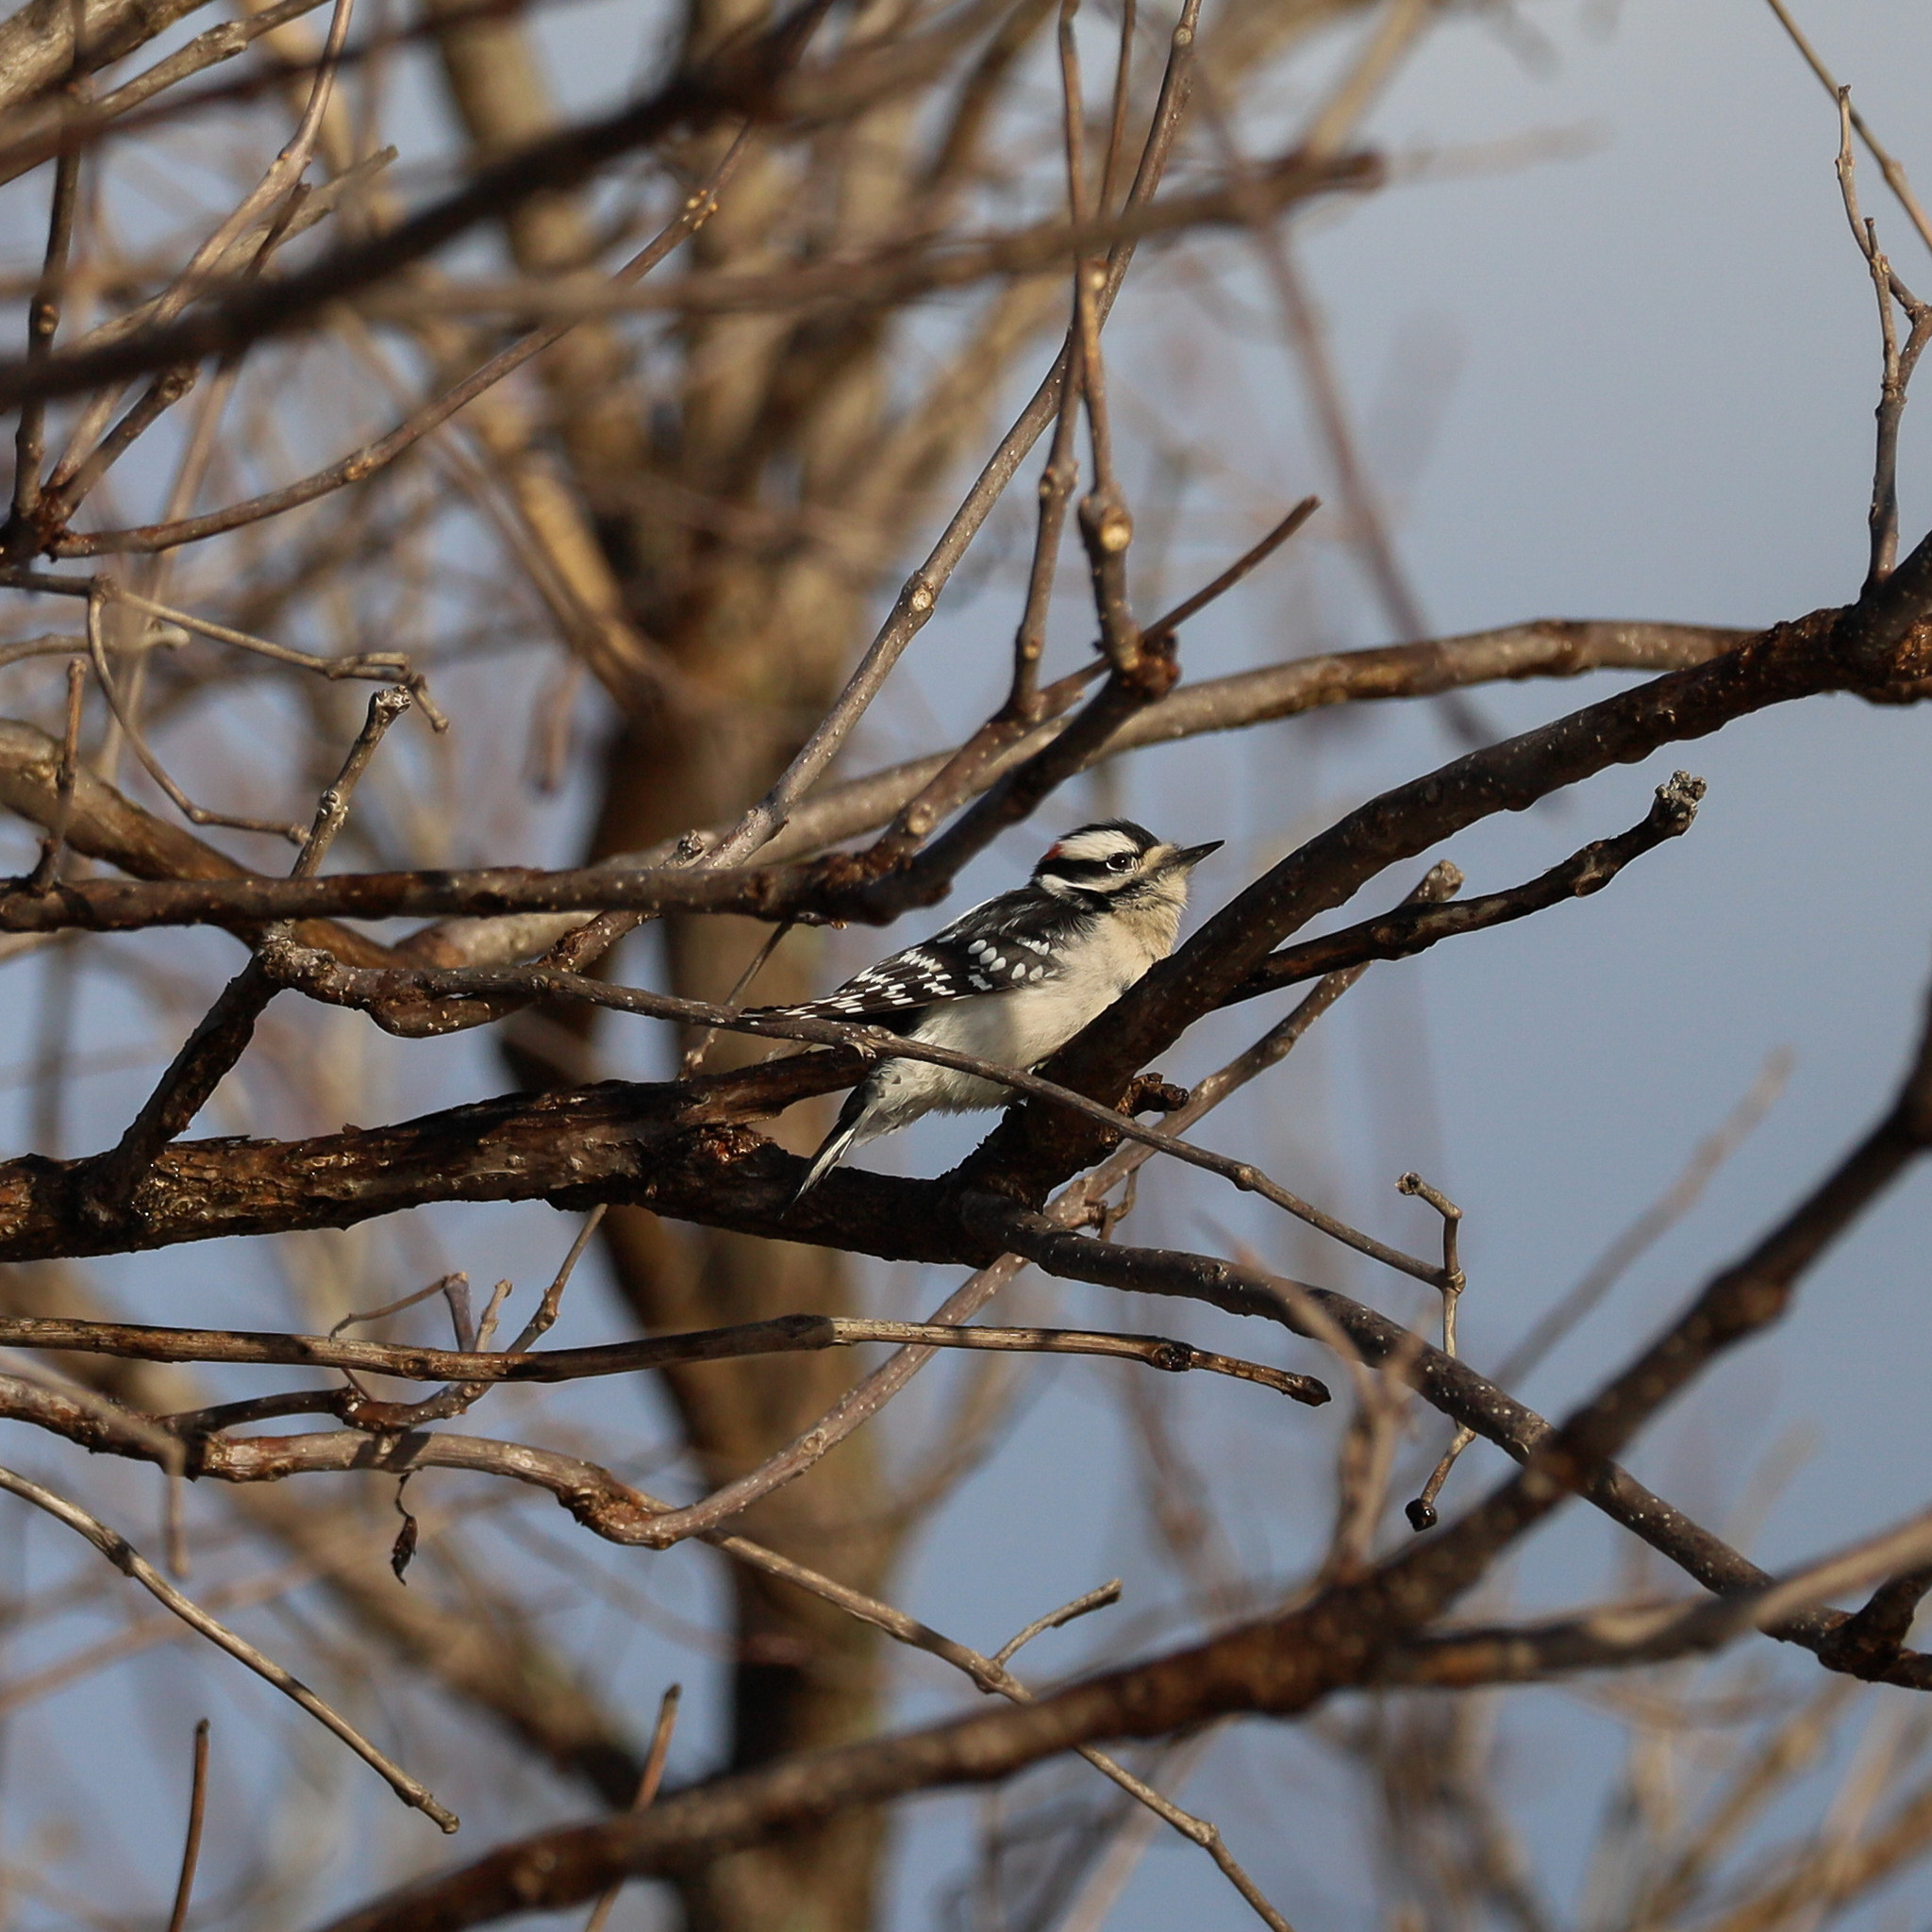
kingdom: Animalia
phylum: Chordata
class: Aves
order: Piciformes
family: Picidae
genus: Dryobates
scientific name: Dryobates pubescens
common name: Downy woodpecker
